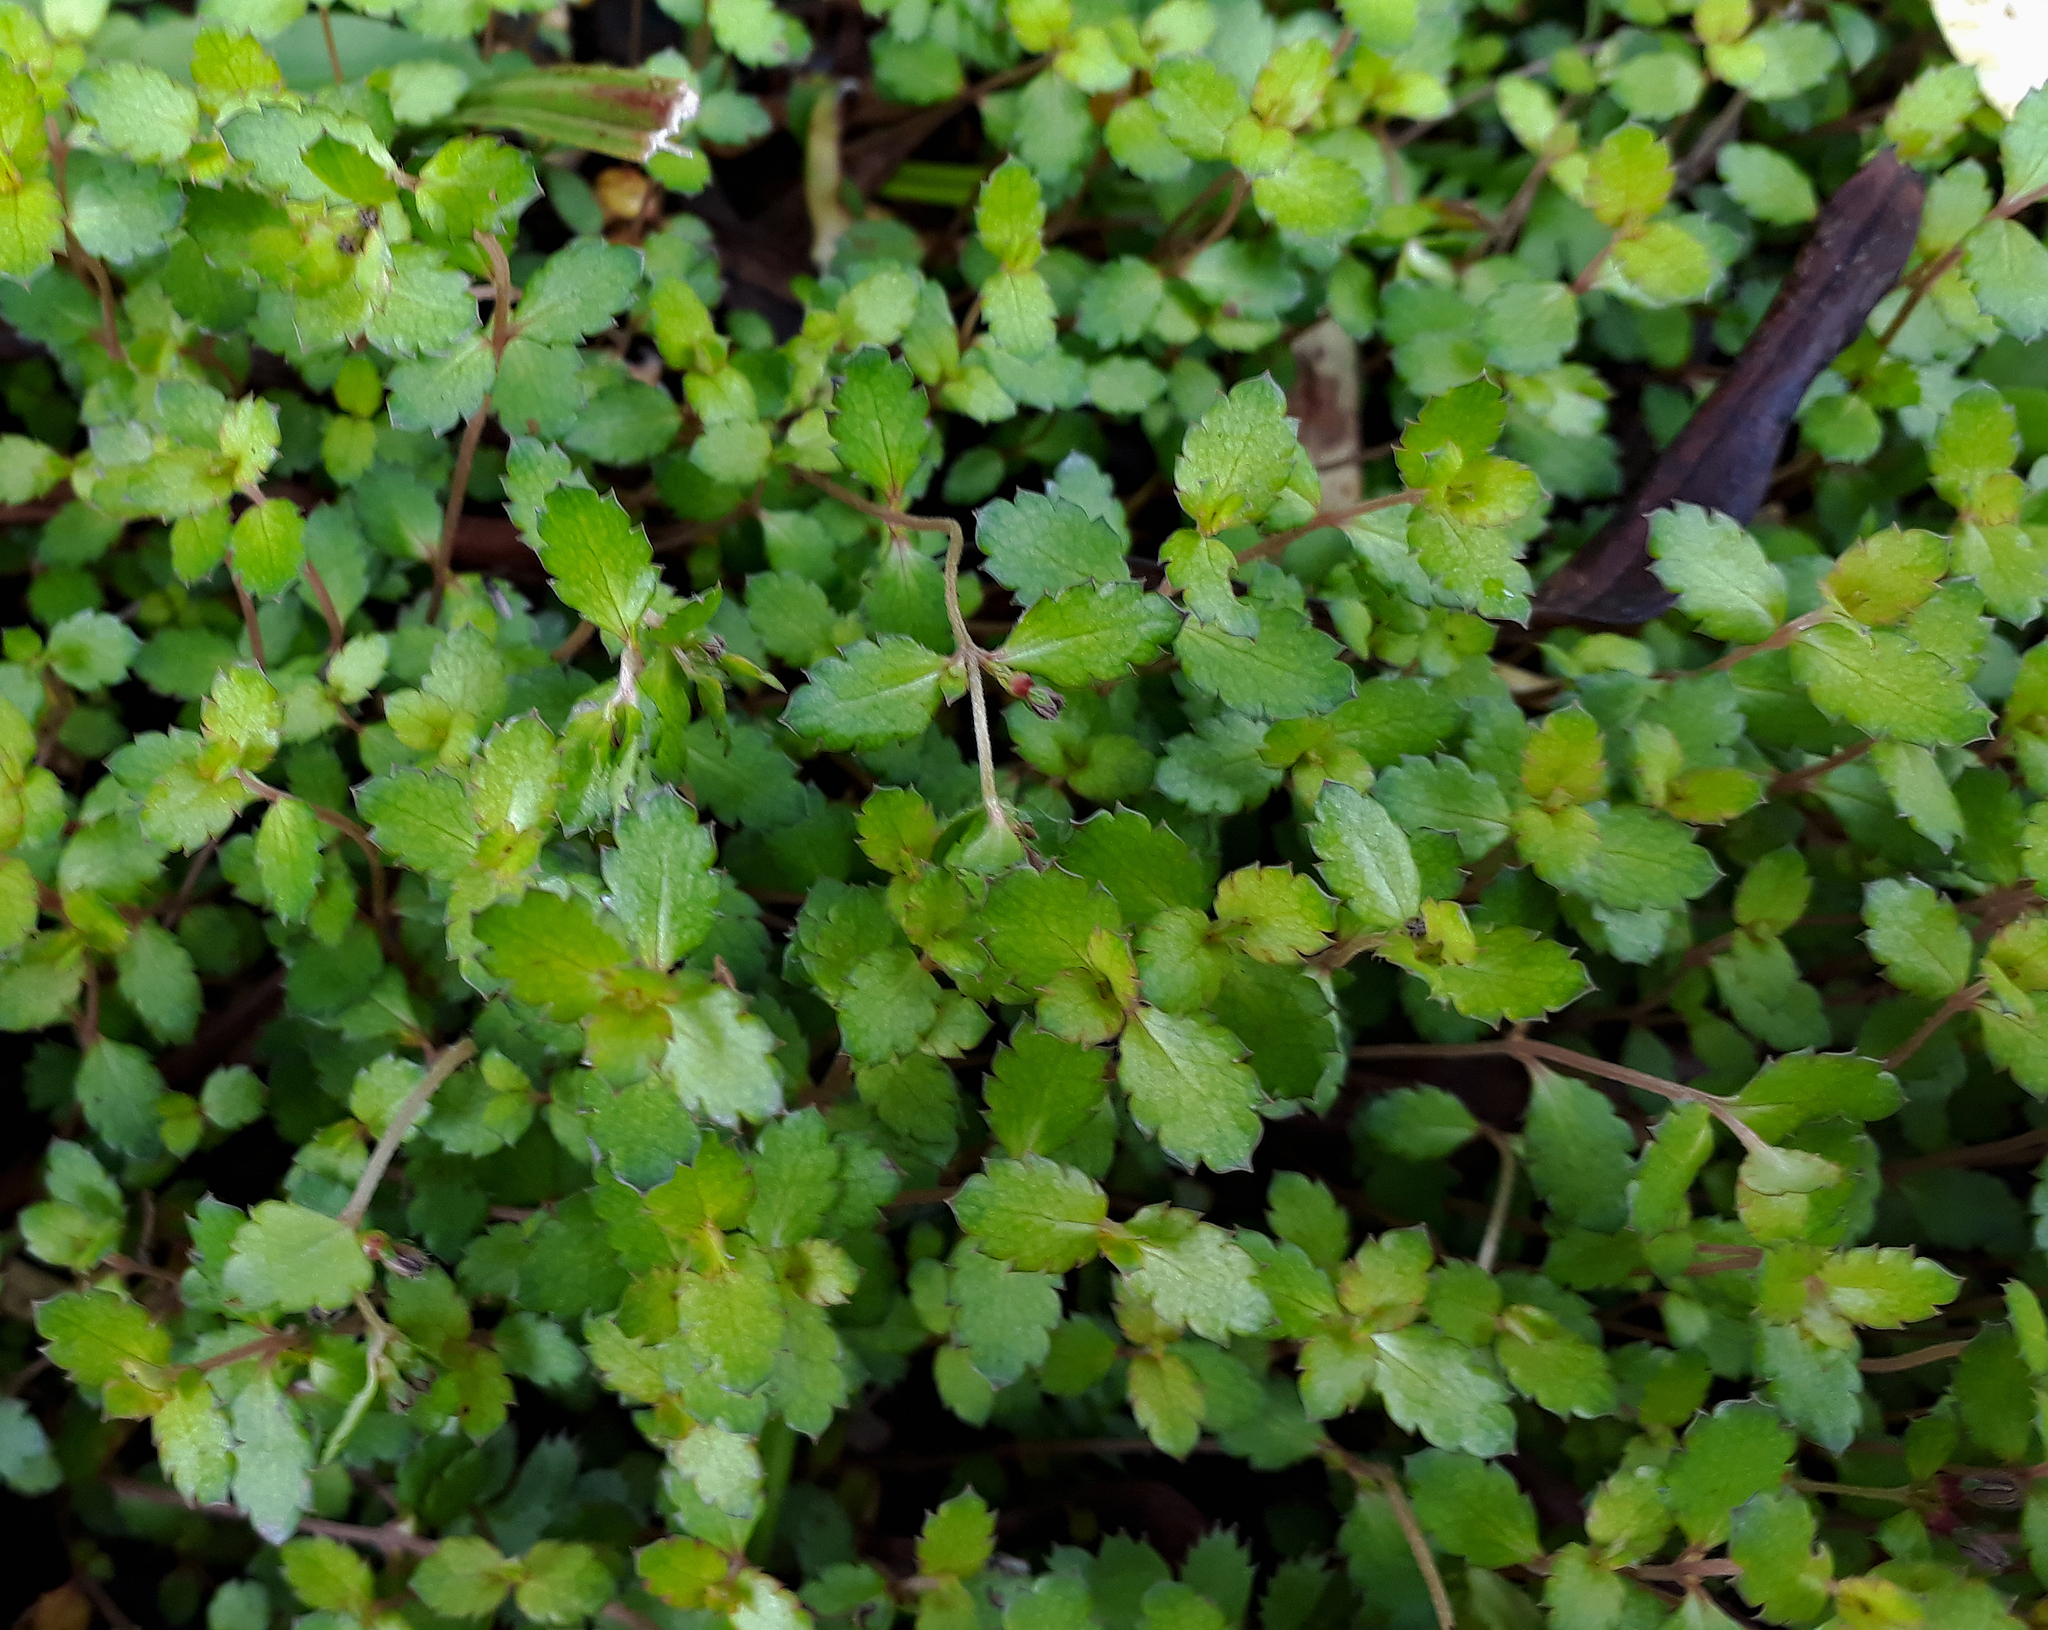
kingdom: Plantae
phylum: Tracheophyta
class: Magnoliopsida
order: Saxifragales
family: Haloragaceae
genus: Gonocarpus
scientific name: Gonocarpus aggregatus
